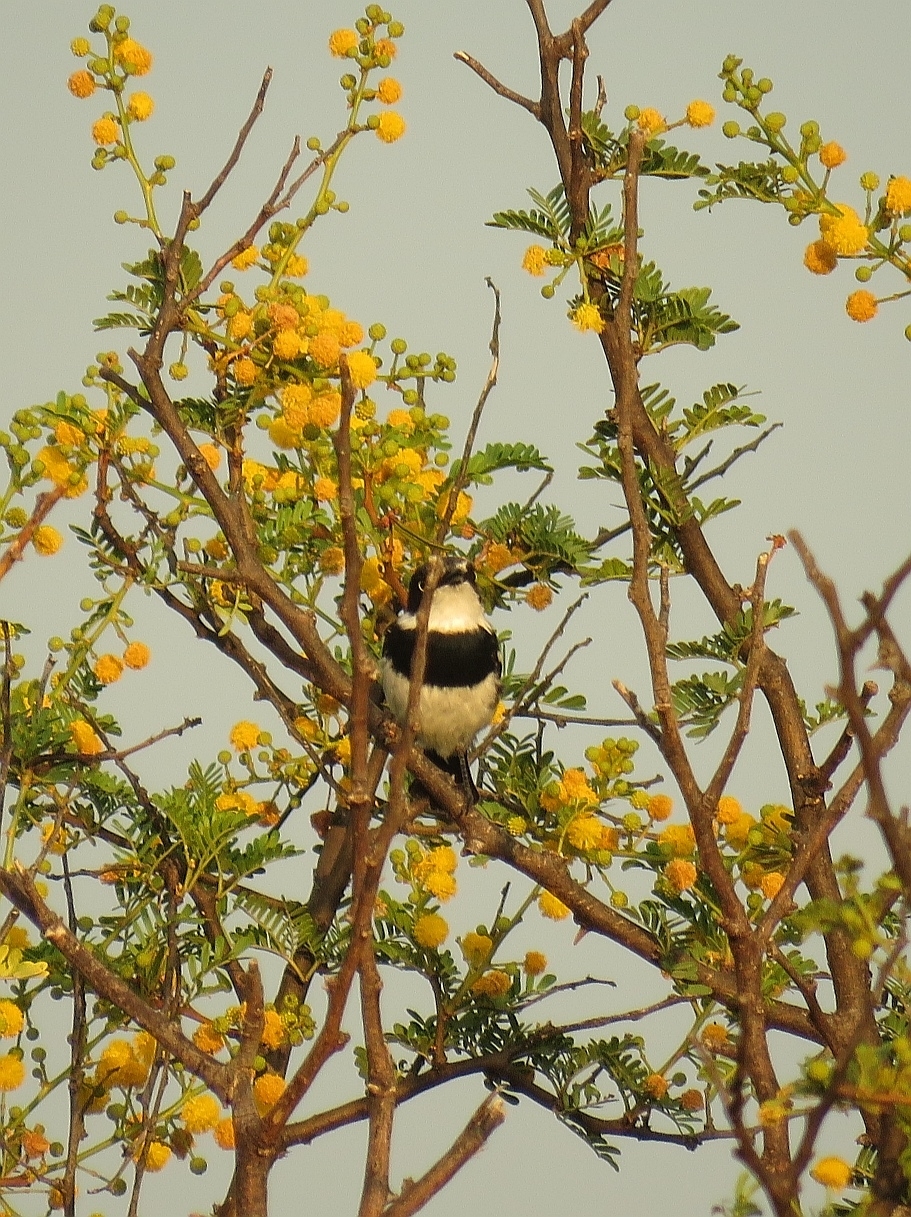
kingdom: Animalia
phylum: Chordata
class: Aves
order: Passeriformes
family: Platysteiridae
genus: Batis
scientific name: Batis pririt
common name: Pririt batis
